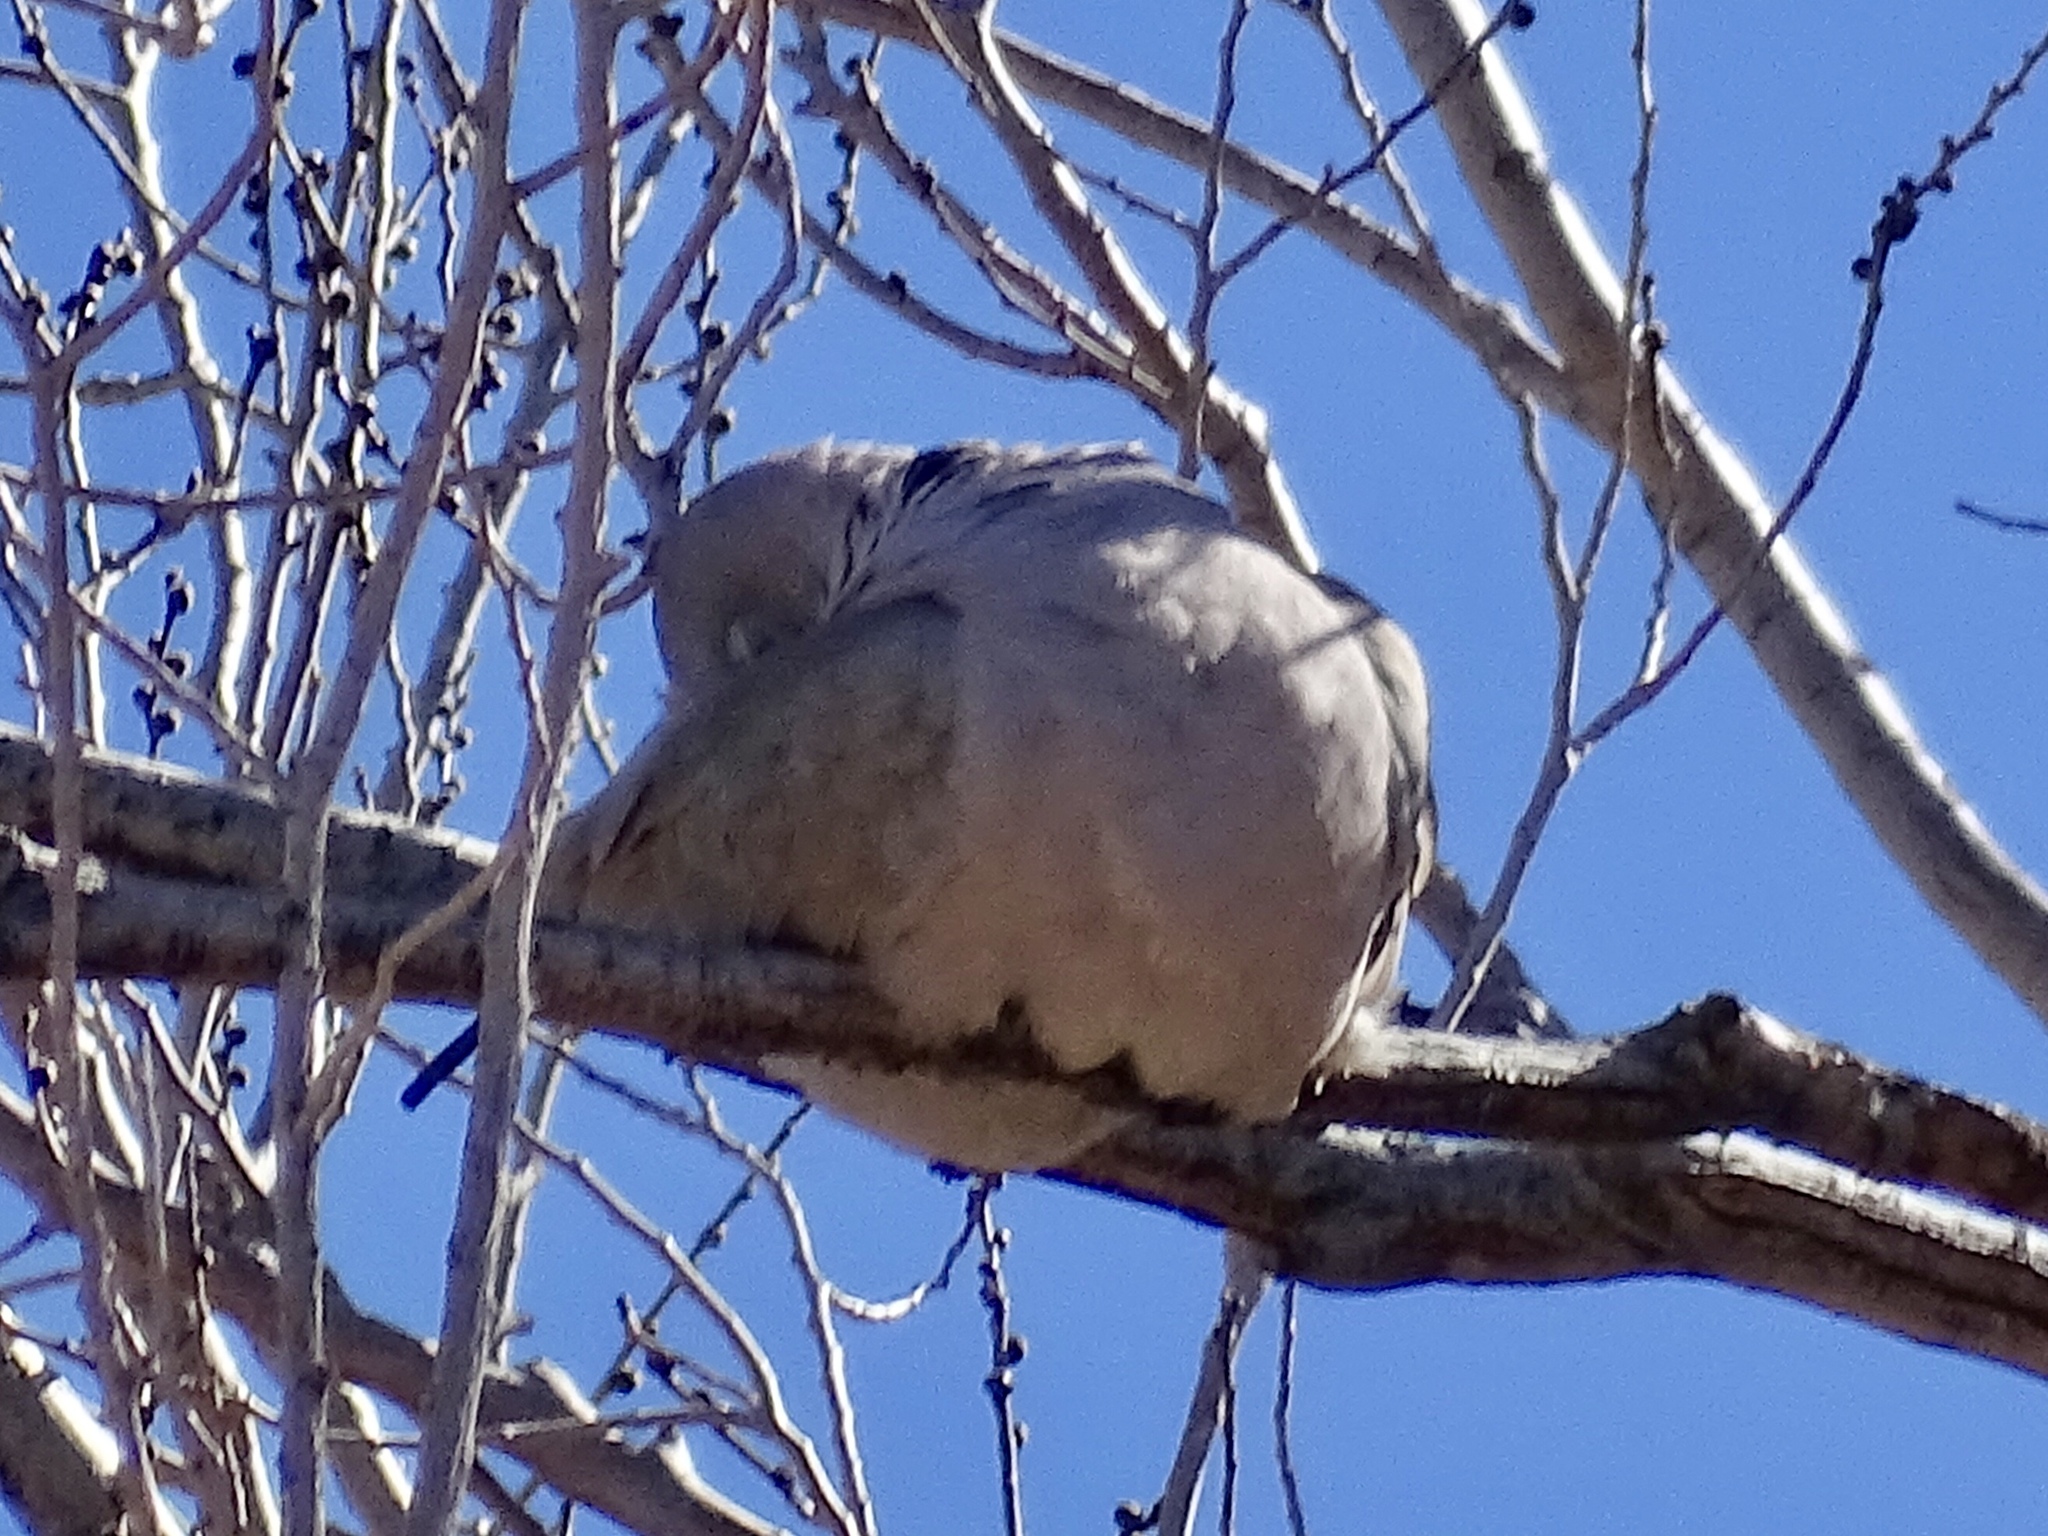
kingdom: Animalia
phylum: Chordata
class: Aves
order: Columbiformes
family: Columbidae
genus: Streptopelia
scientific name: Streptopelia decaocto
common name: Eurasian collared dove
